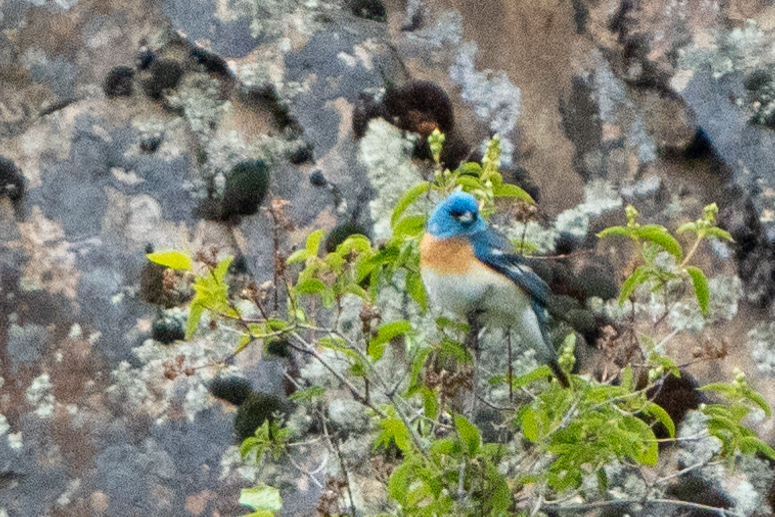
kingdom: Animalia
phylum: Chordata
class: Aves
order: Passeriformes
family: Cardinalidae
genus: Passerina
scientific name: Passerina amoena
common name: Lazuli bunting
